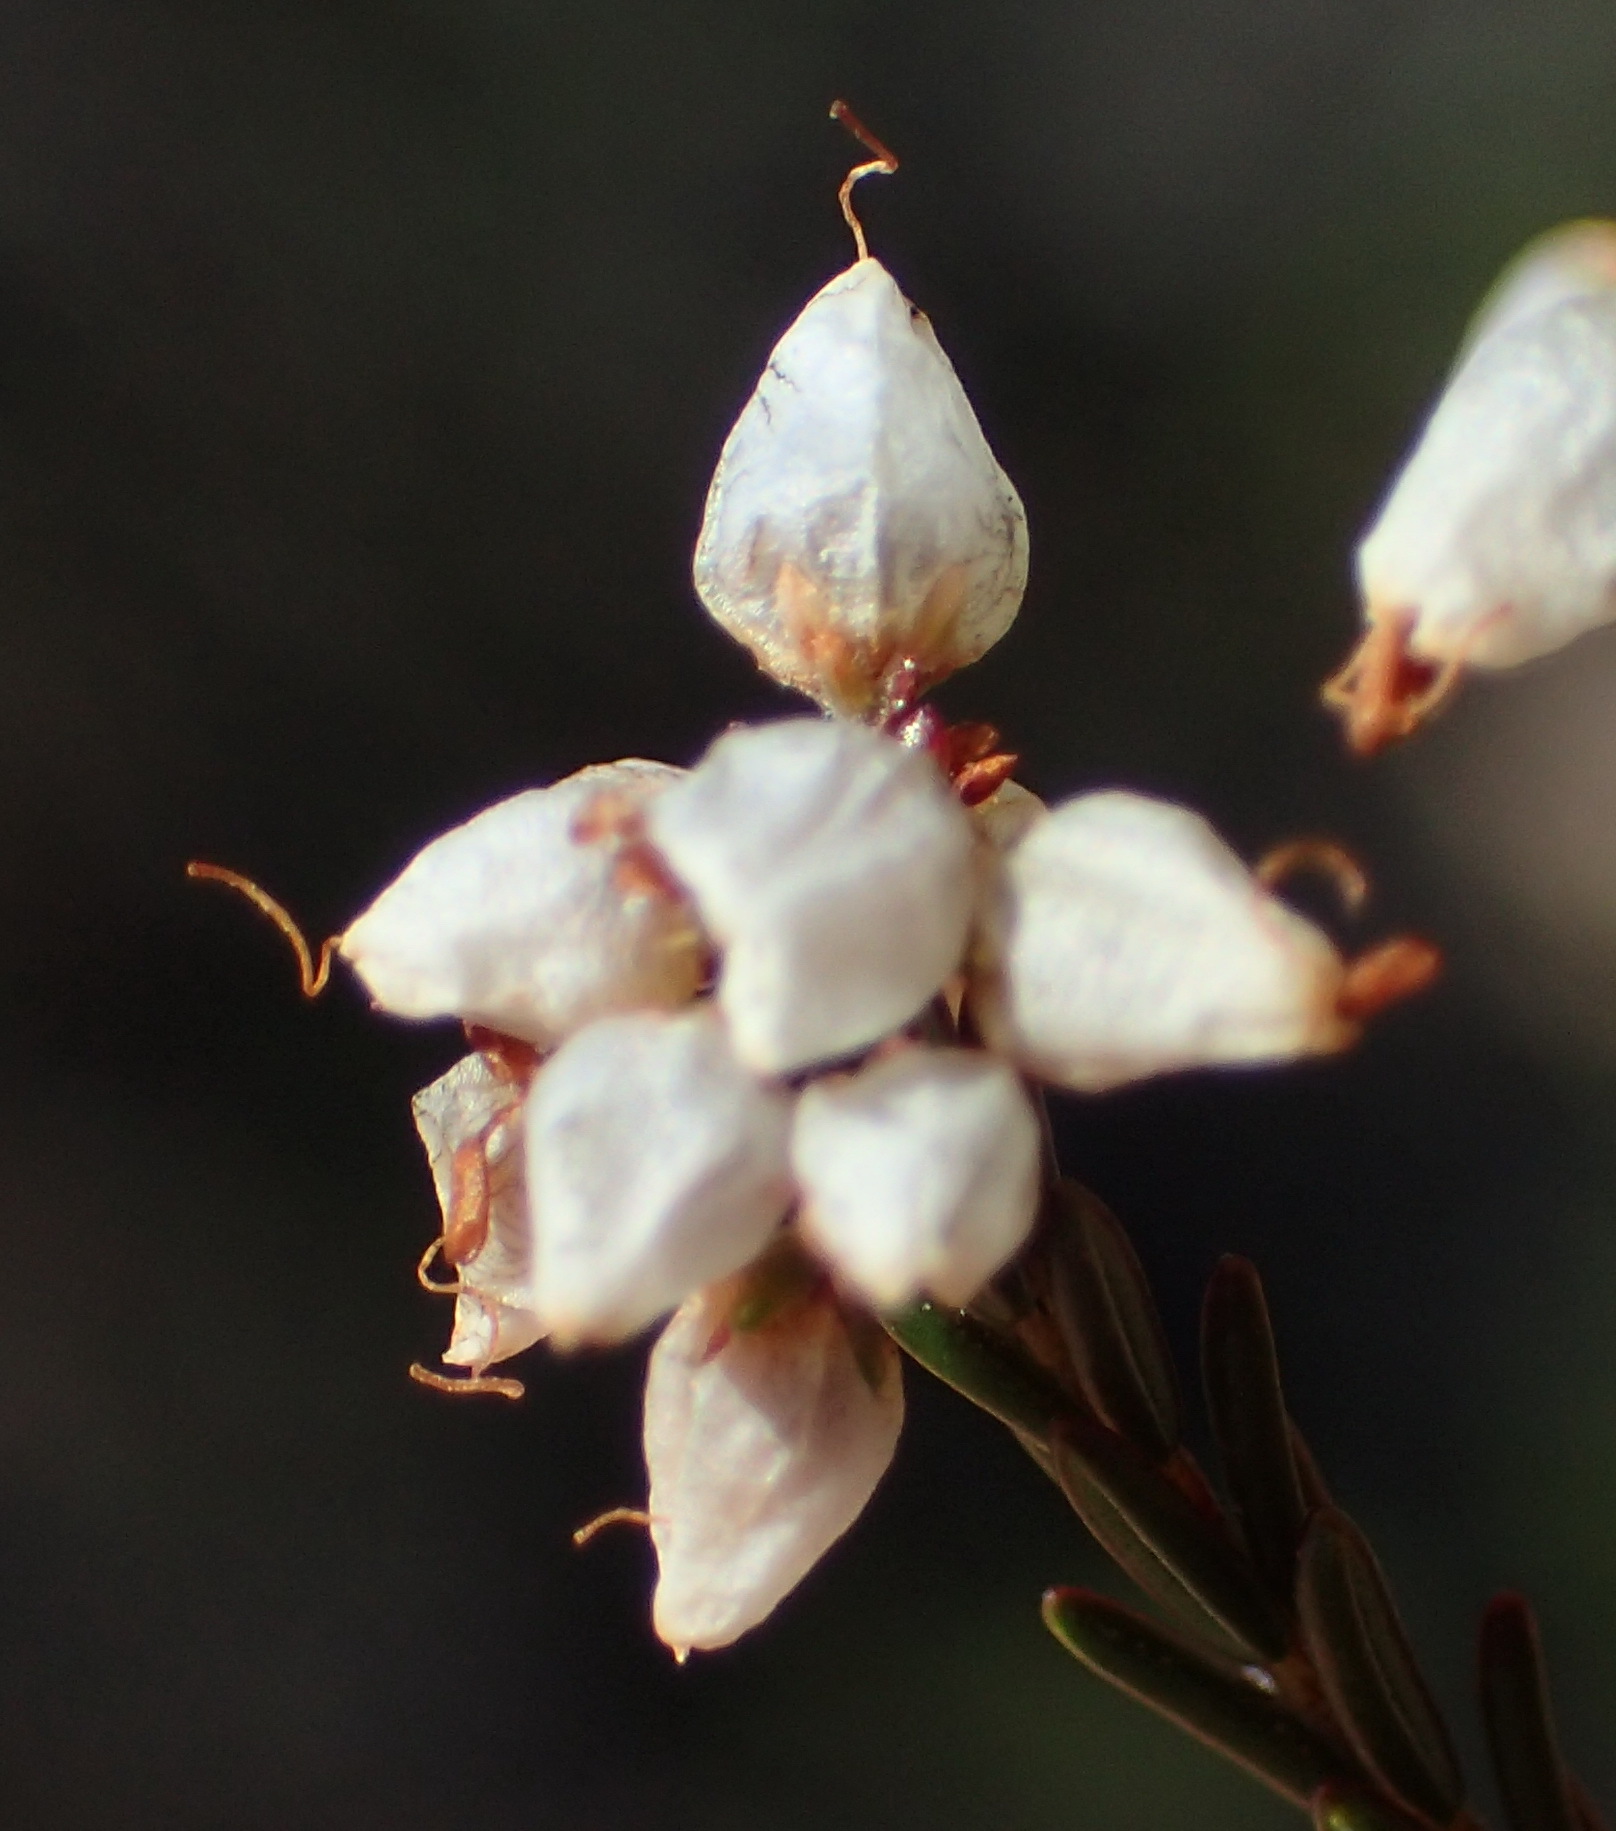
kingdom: Plantae
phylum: Tracheophyta
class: Magnoliopsida
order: Ericales
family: Ericaceae
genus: Erica
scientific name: Erica rosacea
